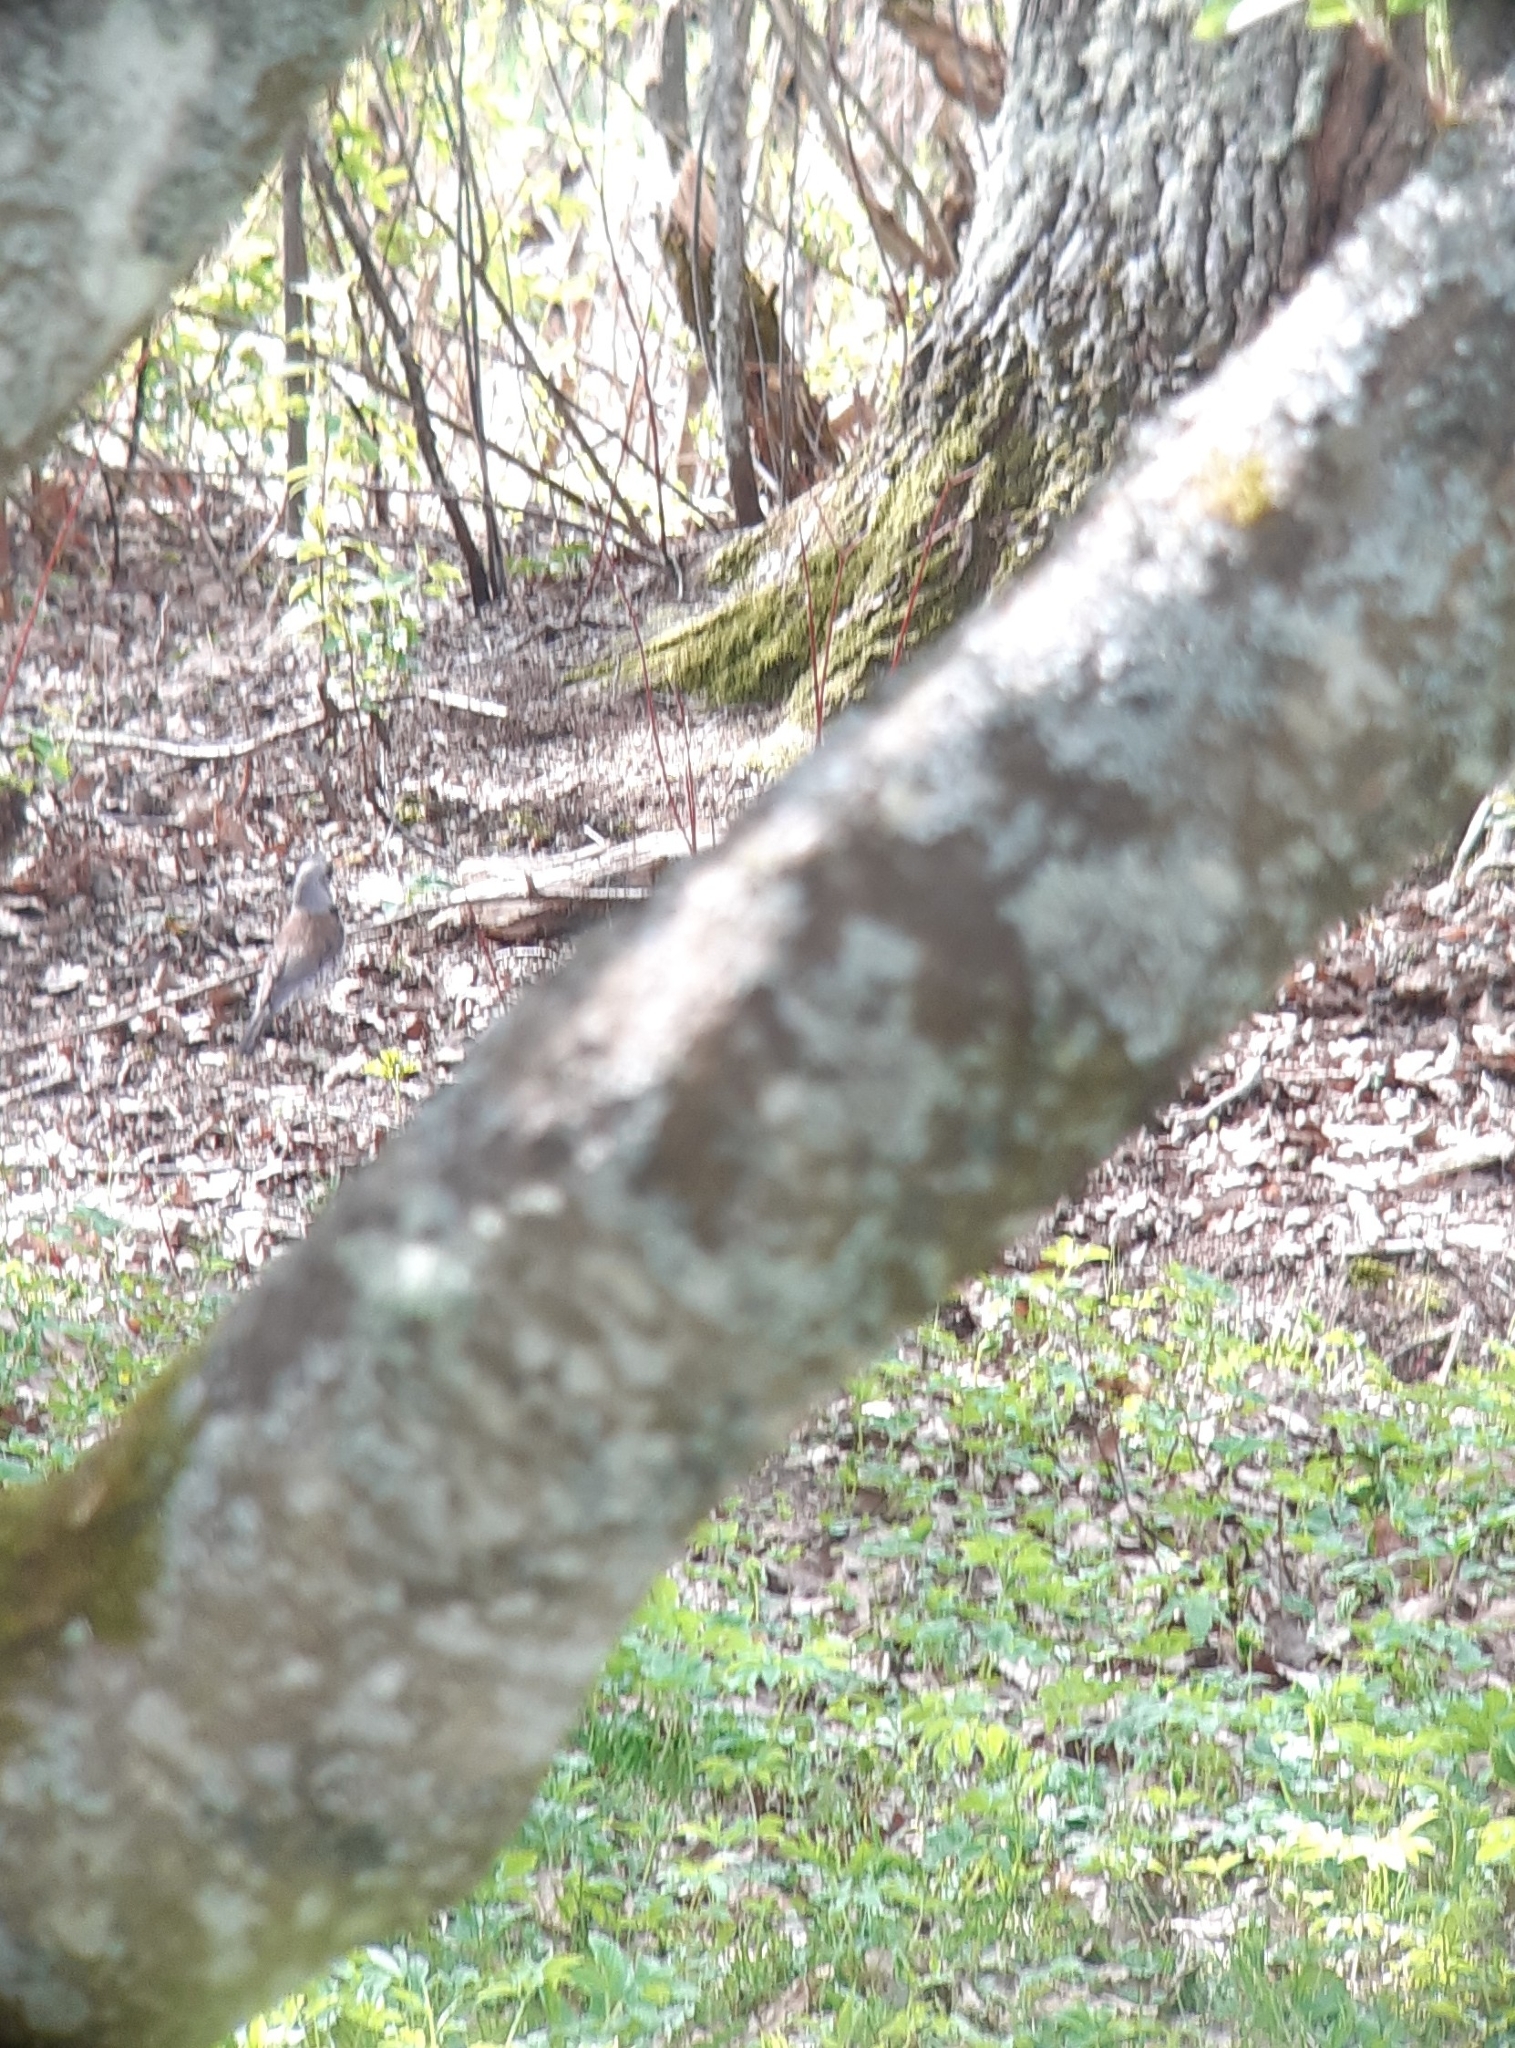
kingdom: Animalia
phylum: Chordata
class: Aves
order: Passeriformes
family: Turdidae
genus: Turdus
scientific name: Turdus pilaris
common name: Fieldfare
